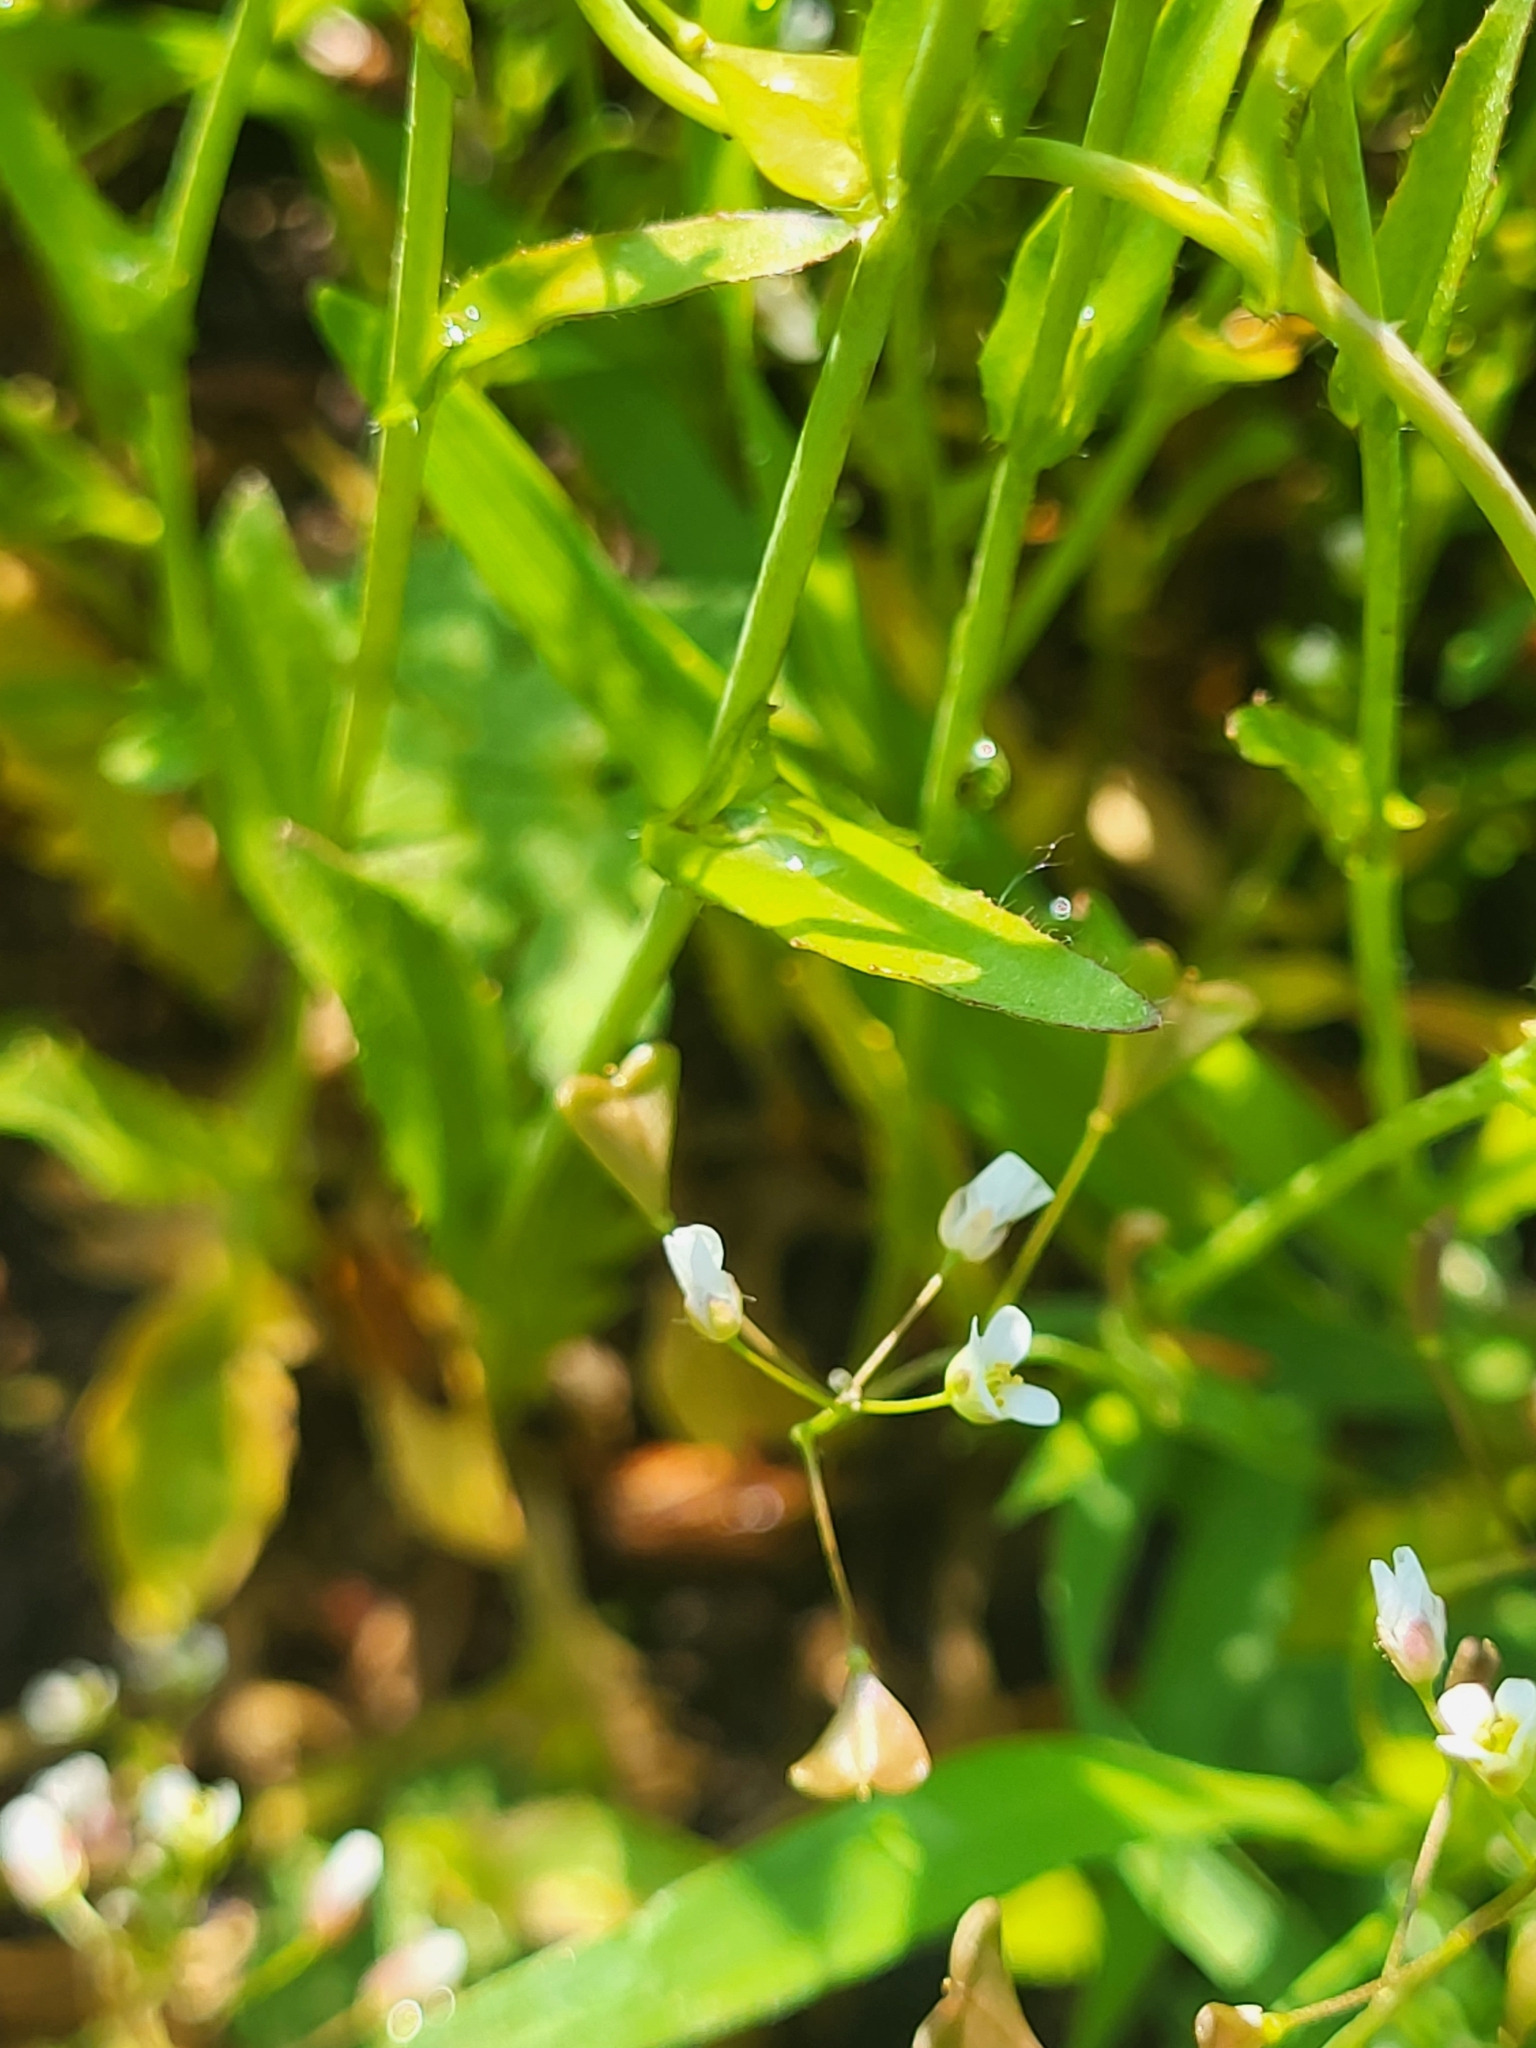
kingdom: Plantae
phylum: Tracheophyta
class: Magnoliopsida
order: Brassicales
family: Brassicaceae
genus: Capsella
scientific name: Capsella bursa-pastoris
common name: Shepherd's purse
